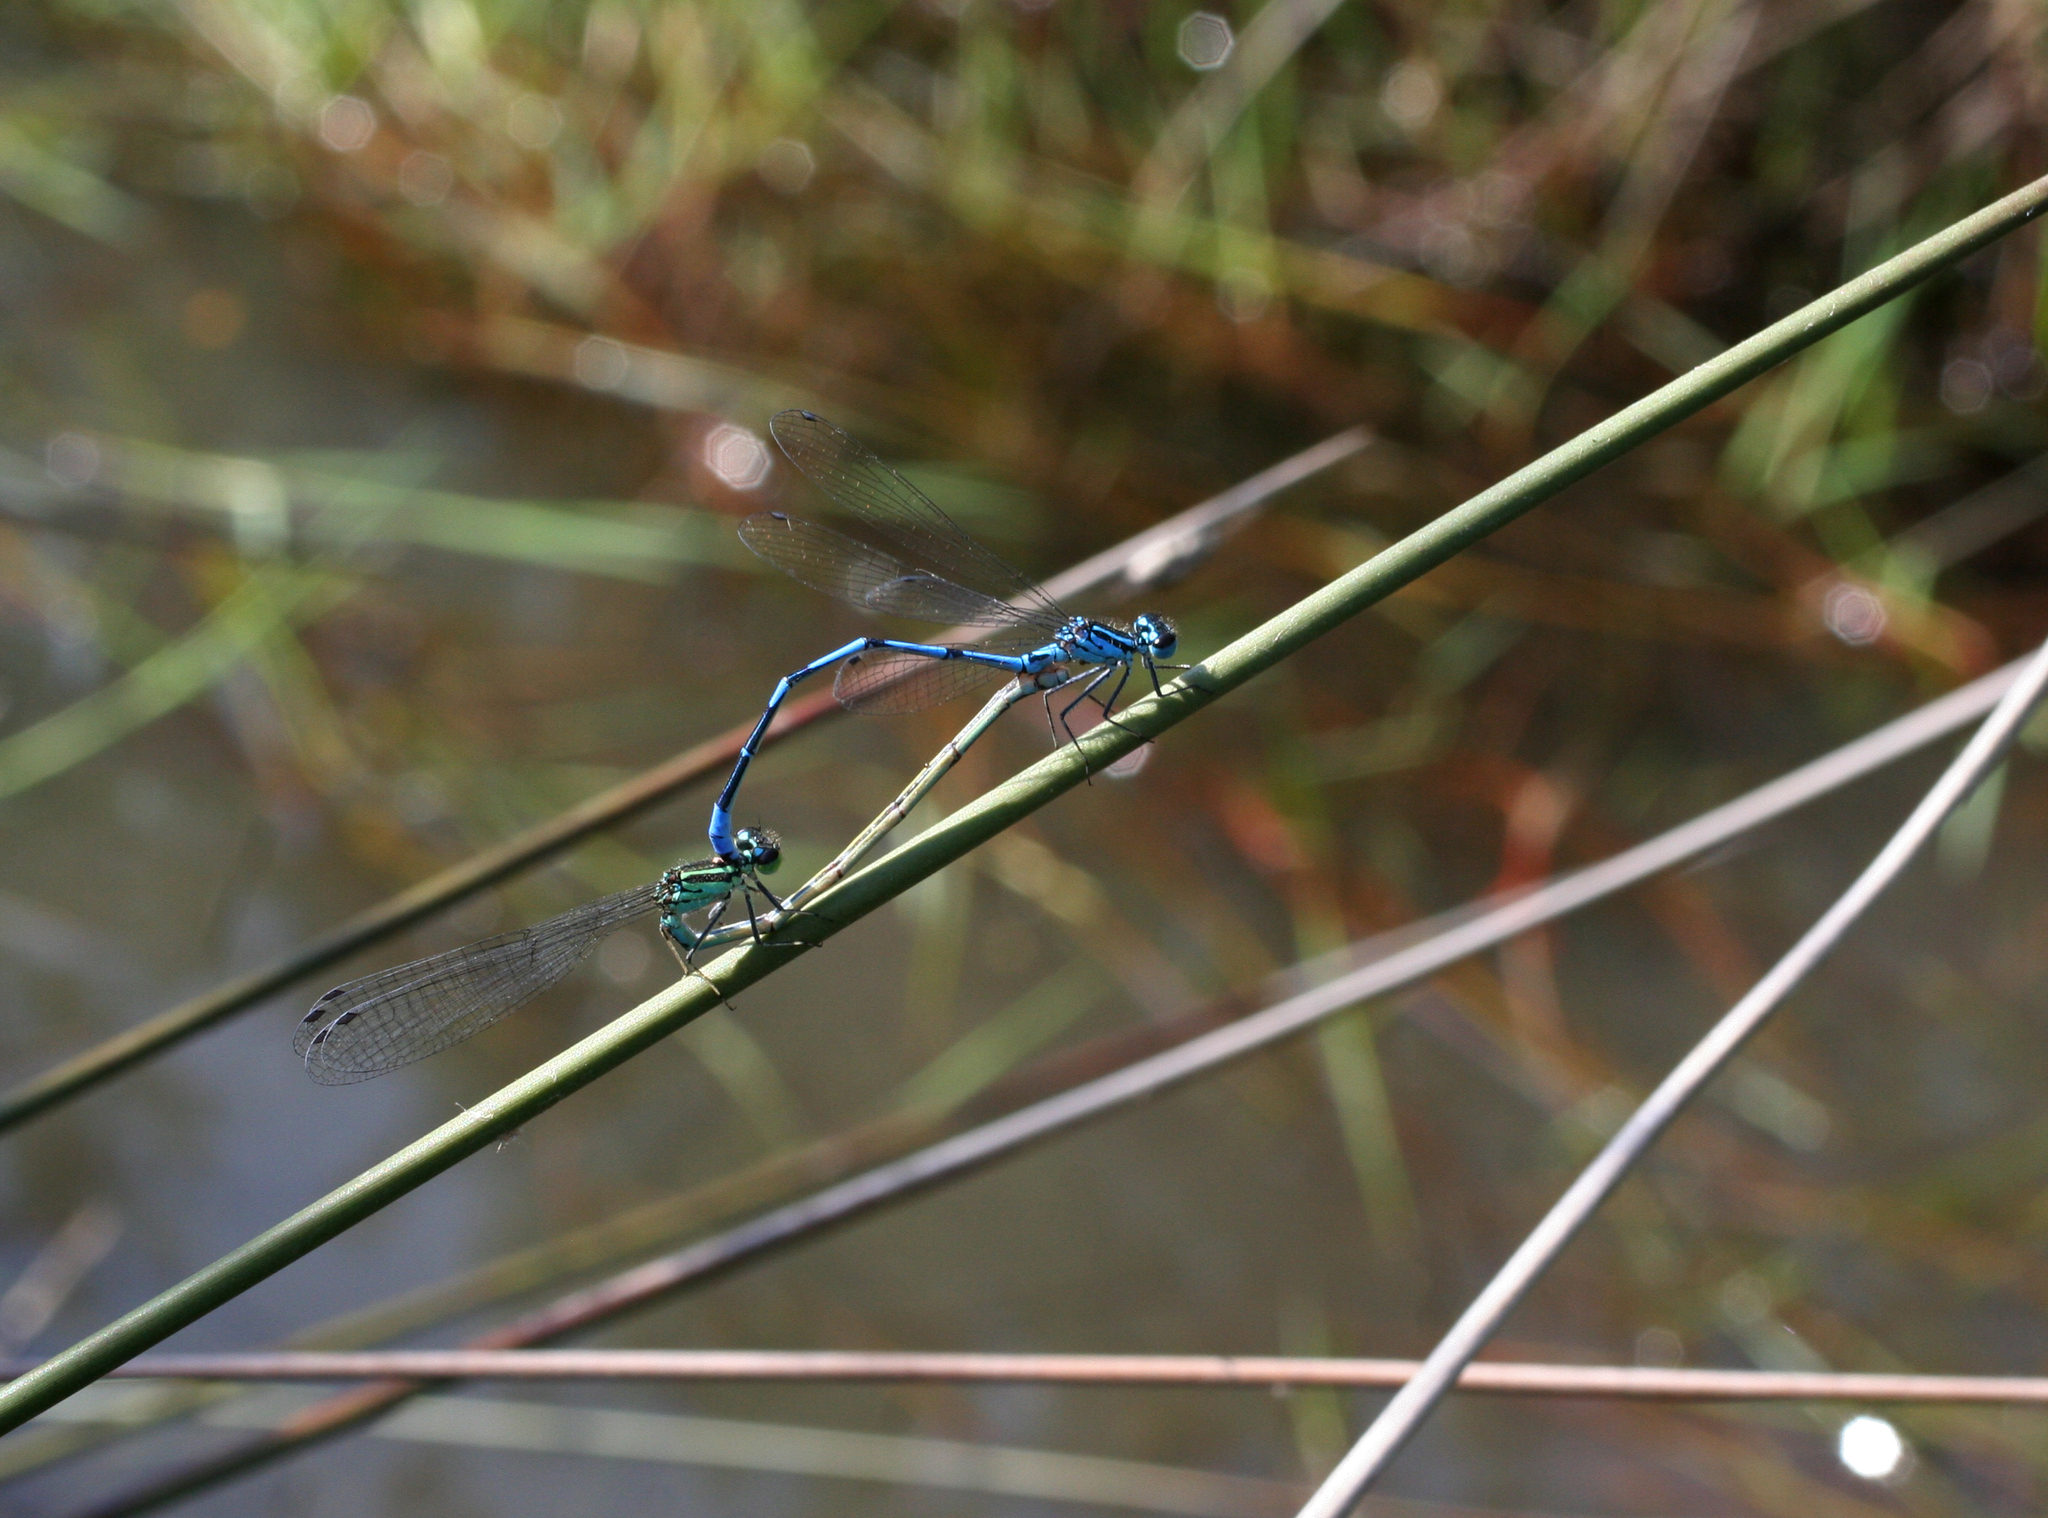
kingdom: Animalia
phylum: Arthropoda
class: Insecta
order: Odonata
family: Coenagrionidae
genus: Coenagrion
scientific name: Coenagrion australocaspicum
